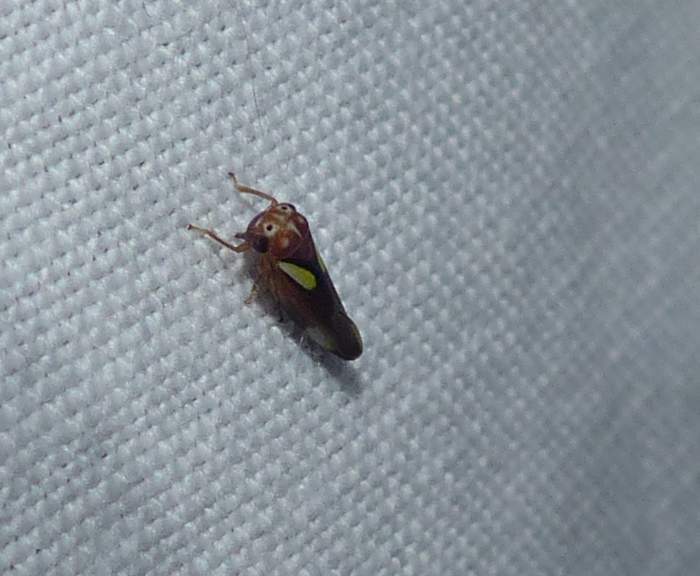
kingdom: Animalia
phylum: Arthropoda
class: Insecta
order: Hemiptera
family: Cicadellidae
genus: Balcanocerus
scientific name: Balcanocerus provancheri
